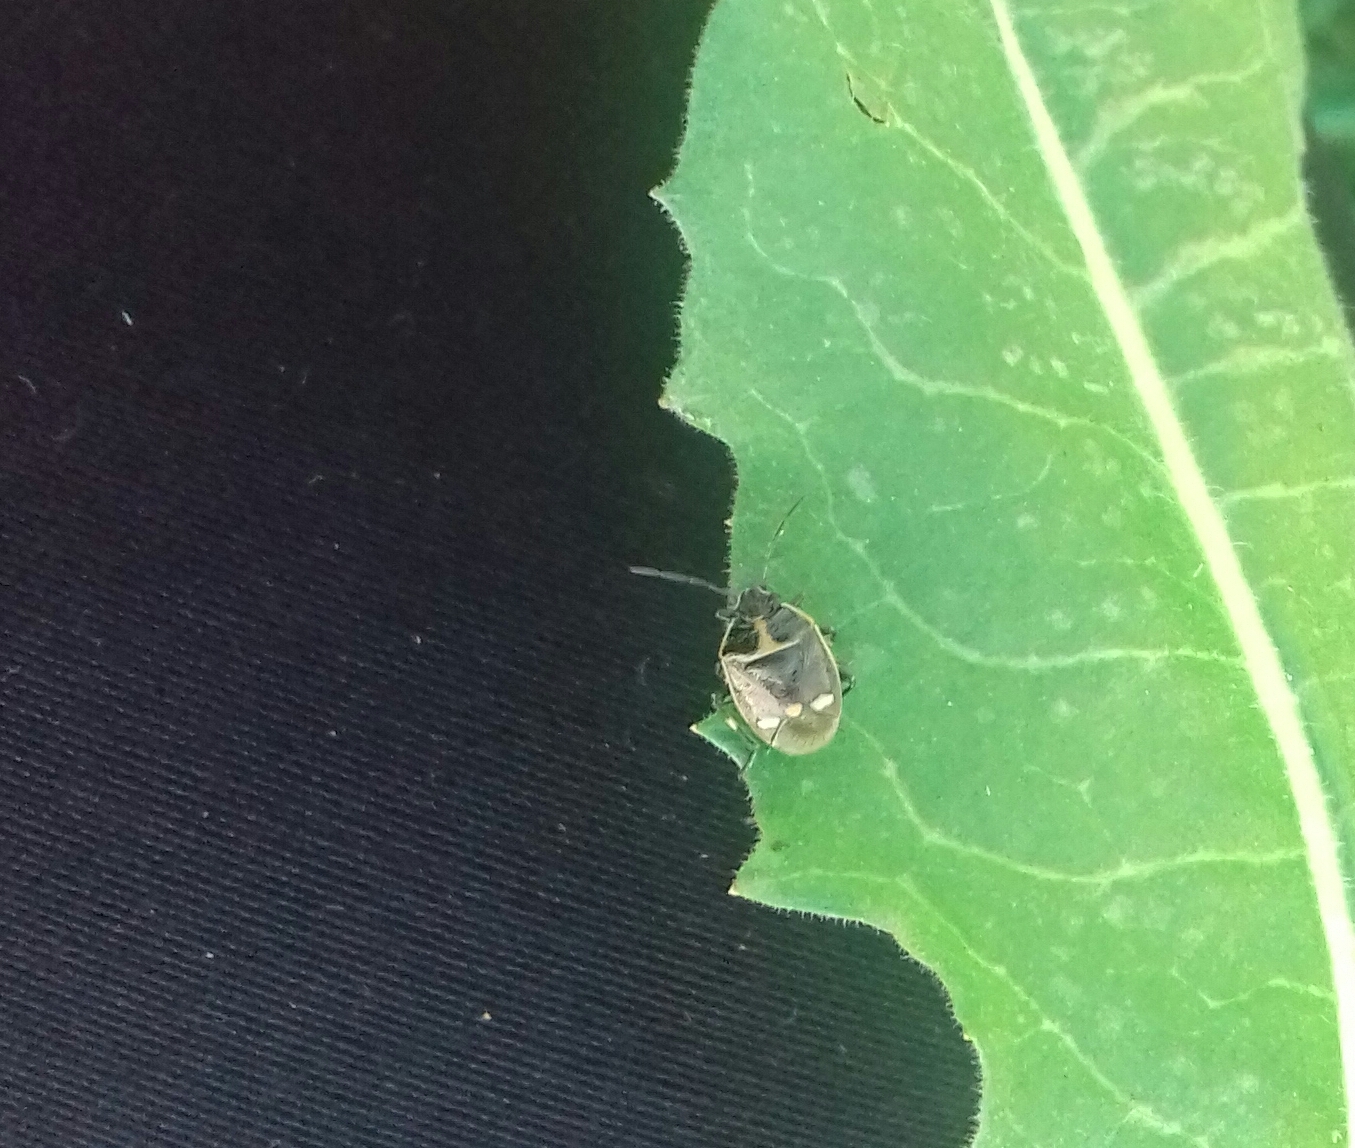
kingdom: Animalia
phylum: Arthropoda
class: Insecta
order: Hemiptera
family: Pentatomidae
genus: Eurydema
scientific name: Eurydema oleracea
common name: Cabbage bug
